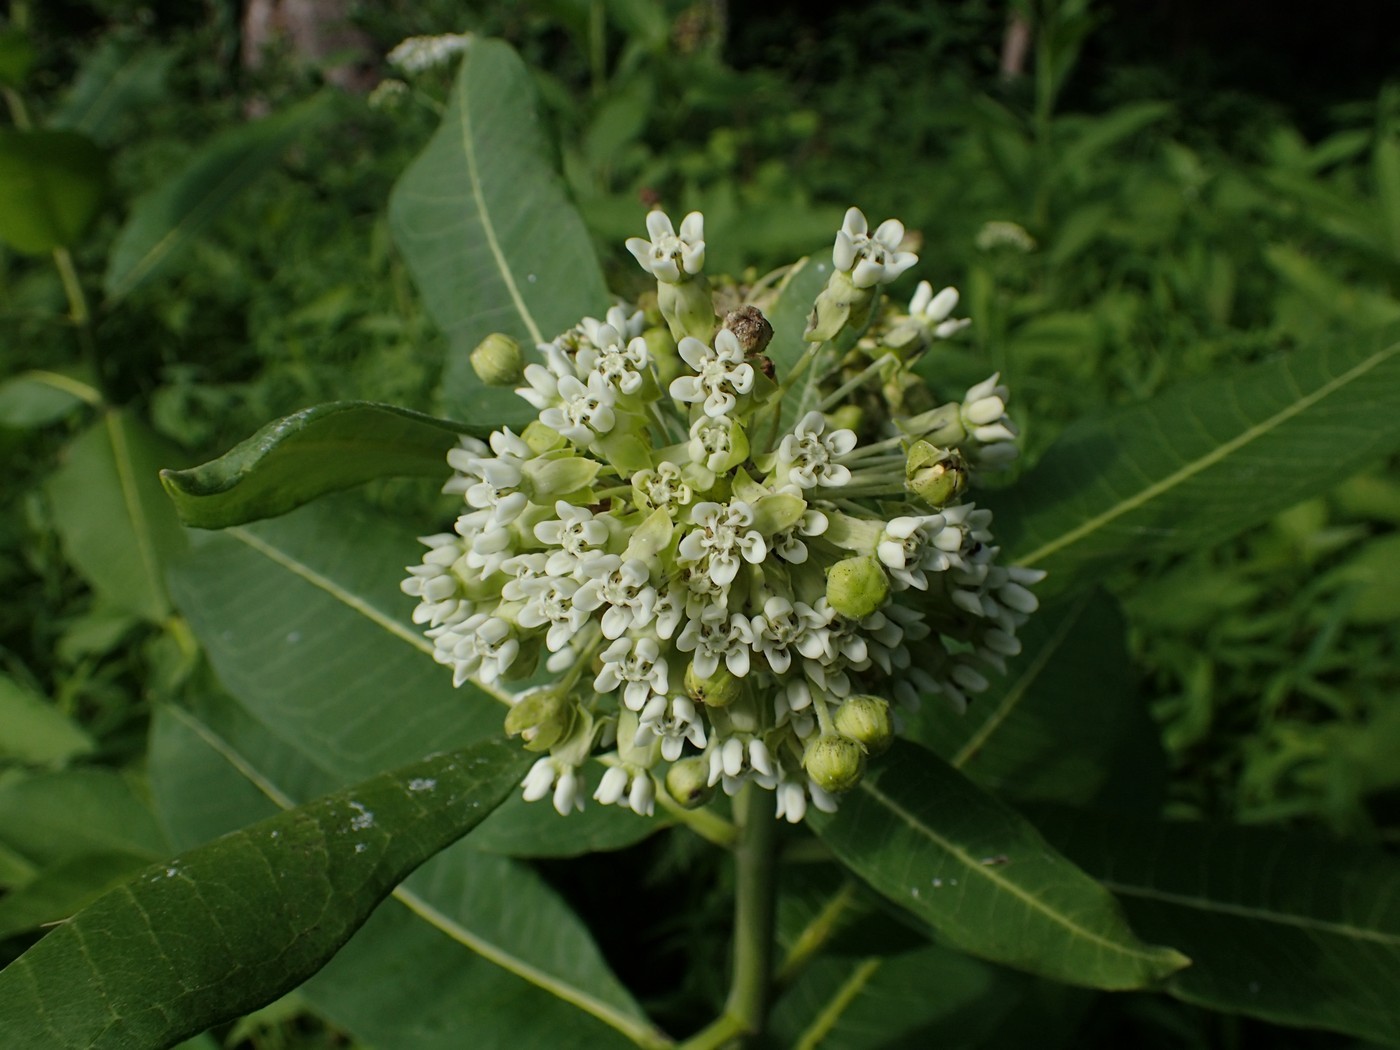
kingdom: Plantae
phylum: Tracheophyta
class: Magnoliopsida
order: Gentianales
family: Apocynaceae
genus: Asclepias
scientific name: Asclepias syriaca
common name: Common milkweed
